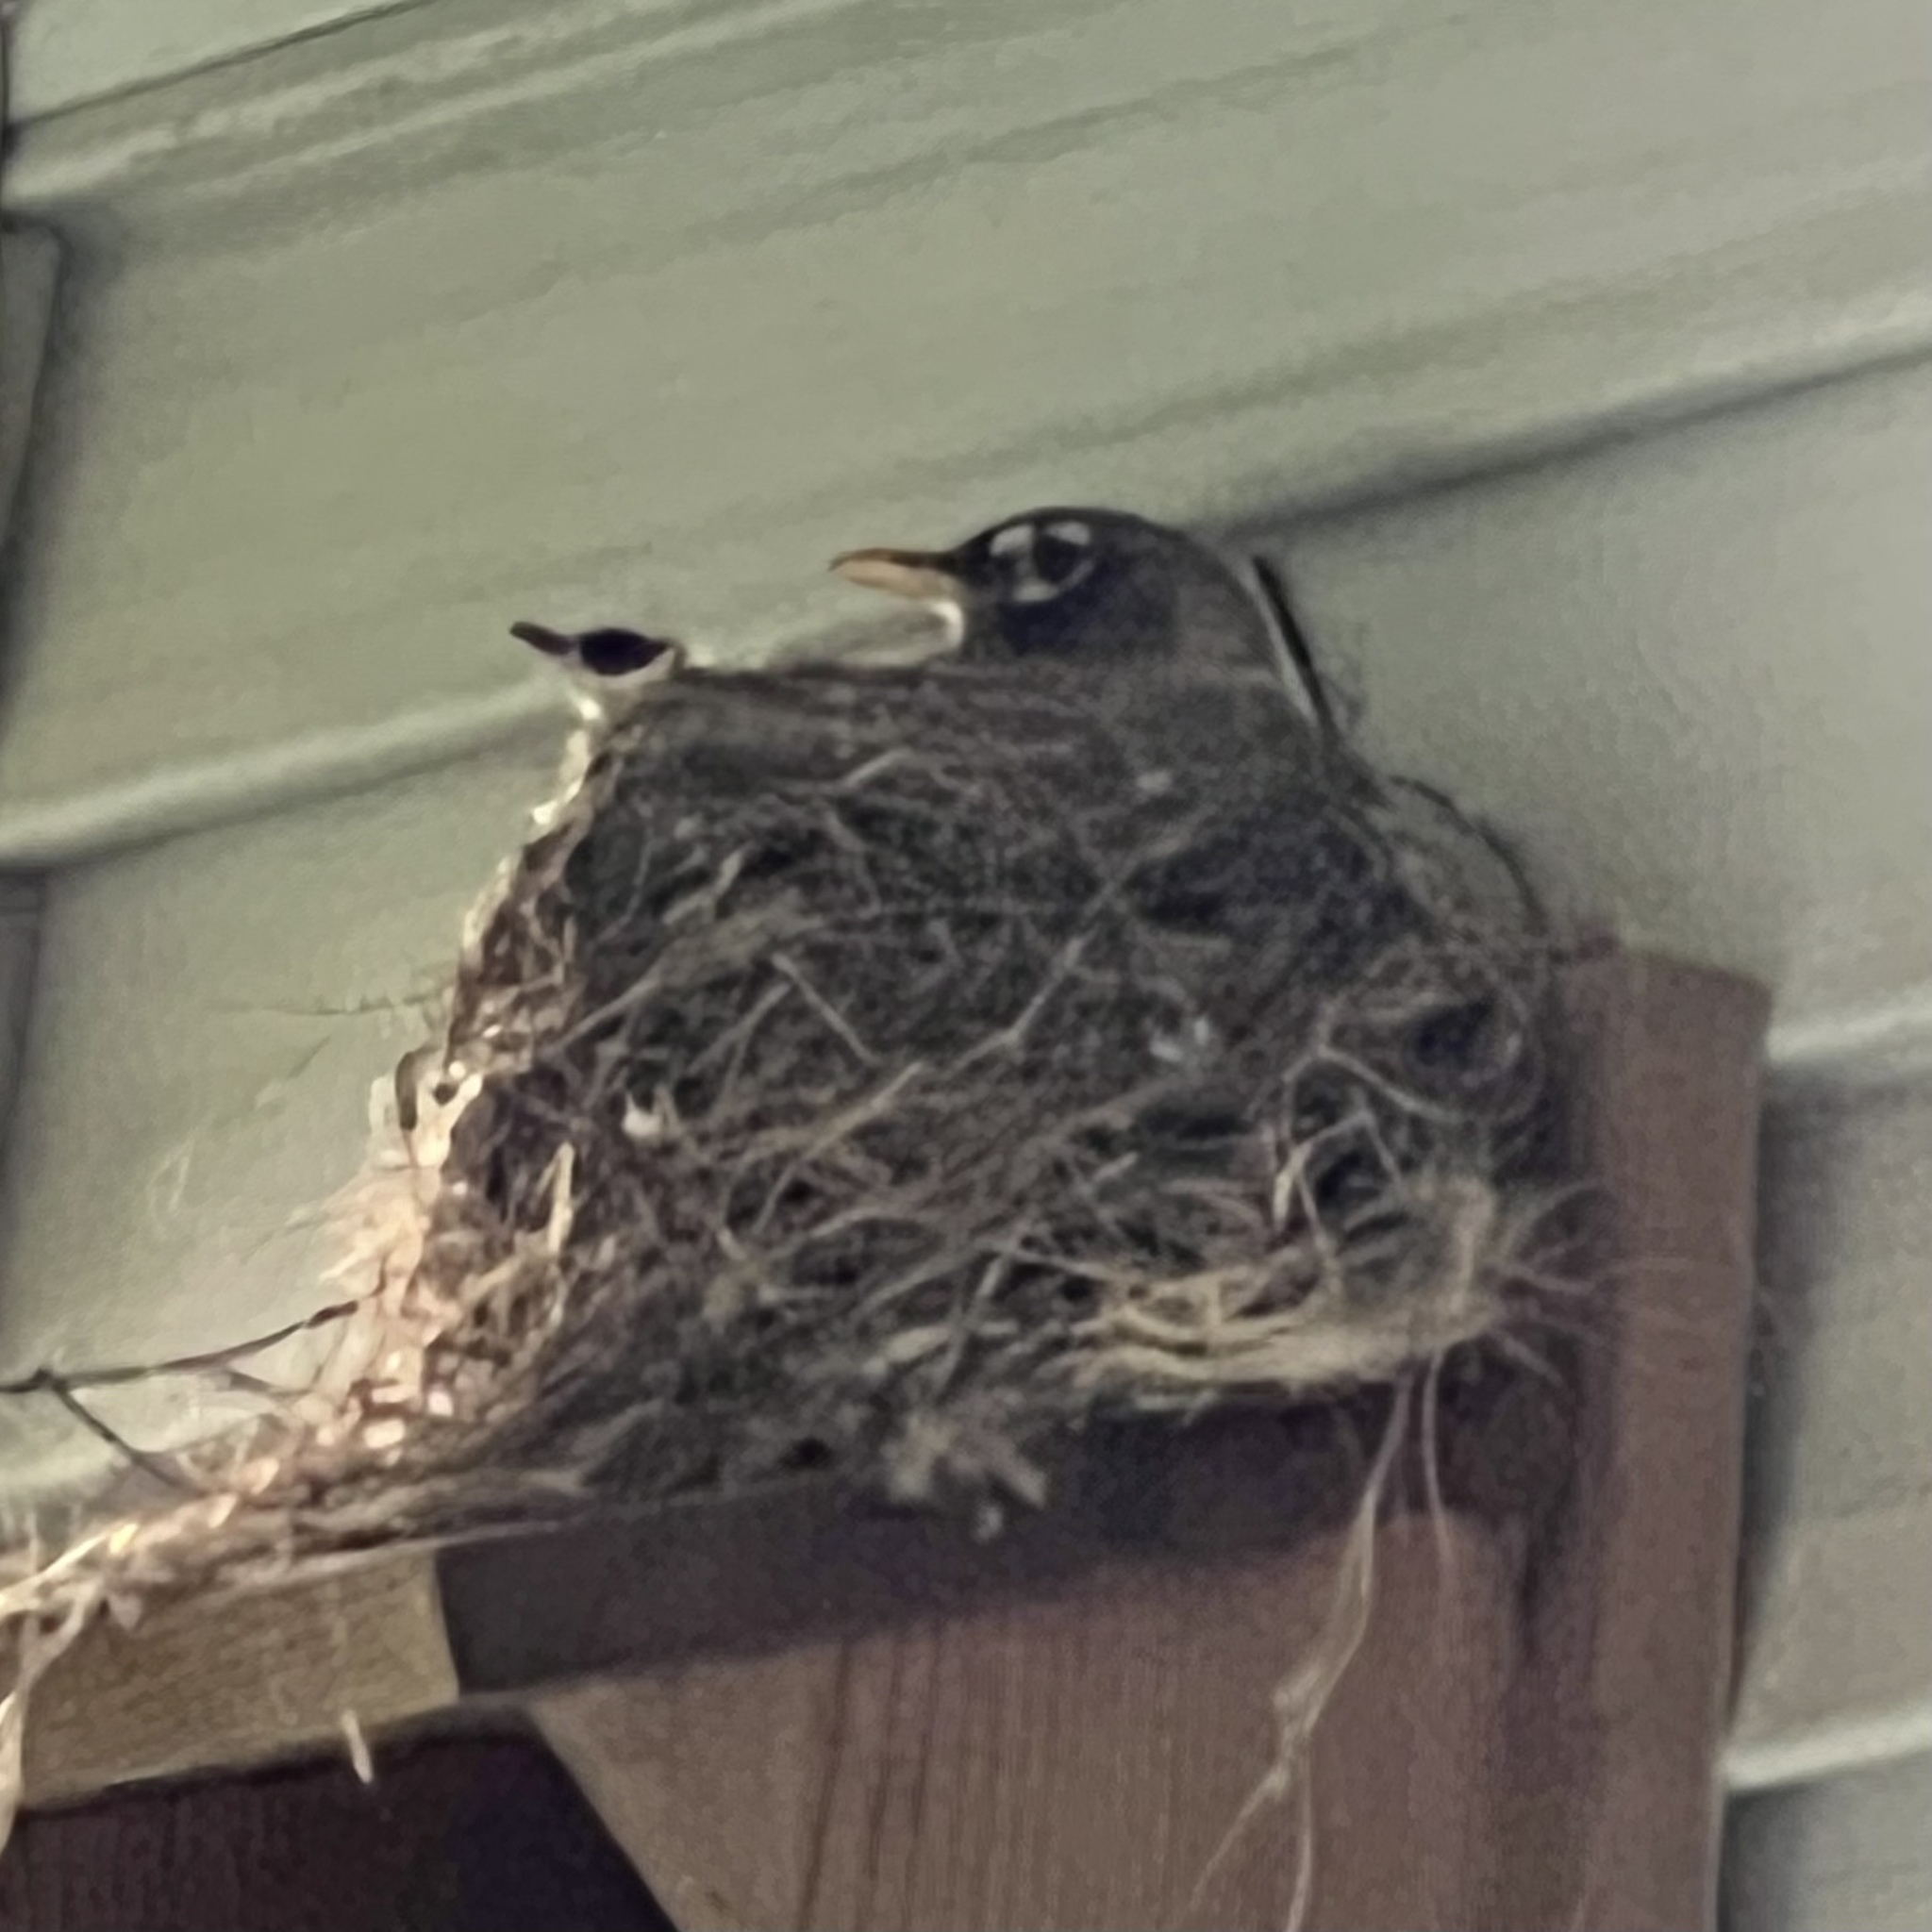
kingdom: Animalia
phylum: Chordata
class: Aves
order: Passeriformes
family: Turdidae
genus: Turdus
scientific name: Turdus migratorius
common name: American robin
